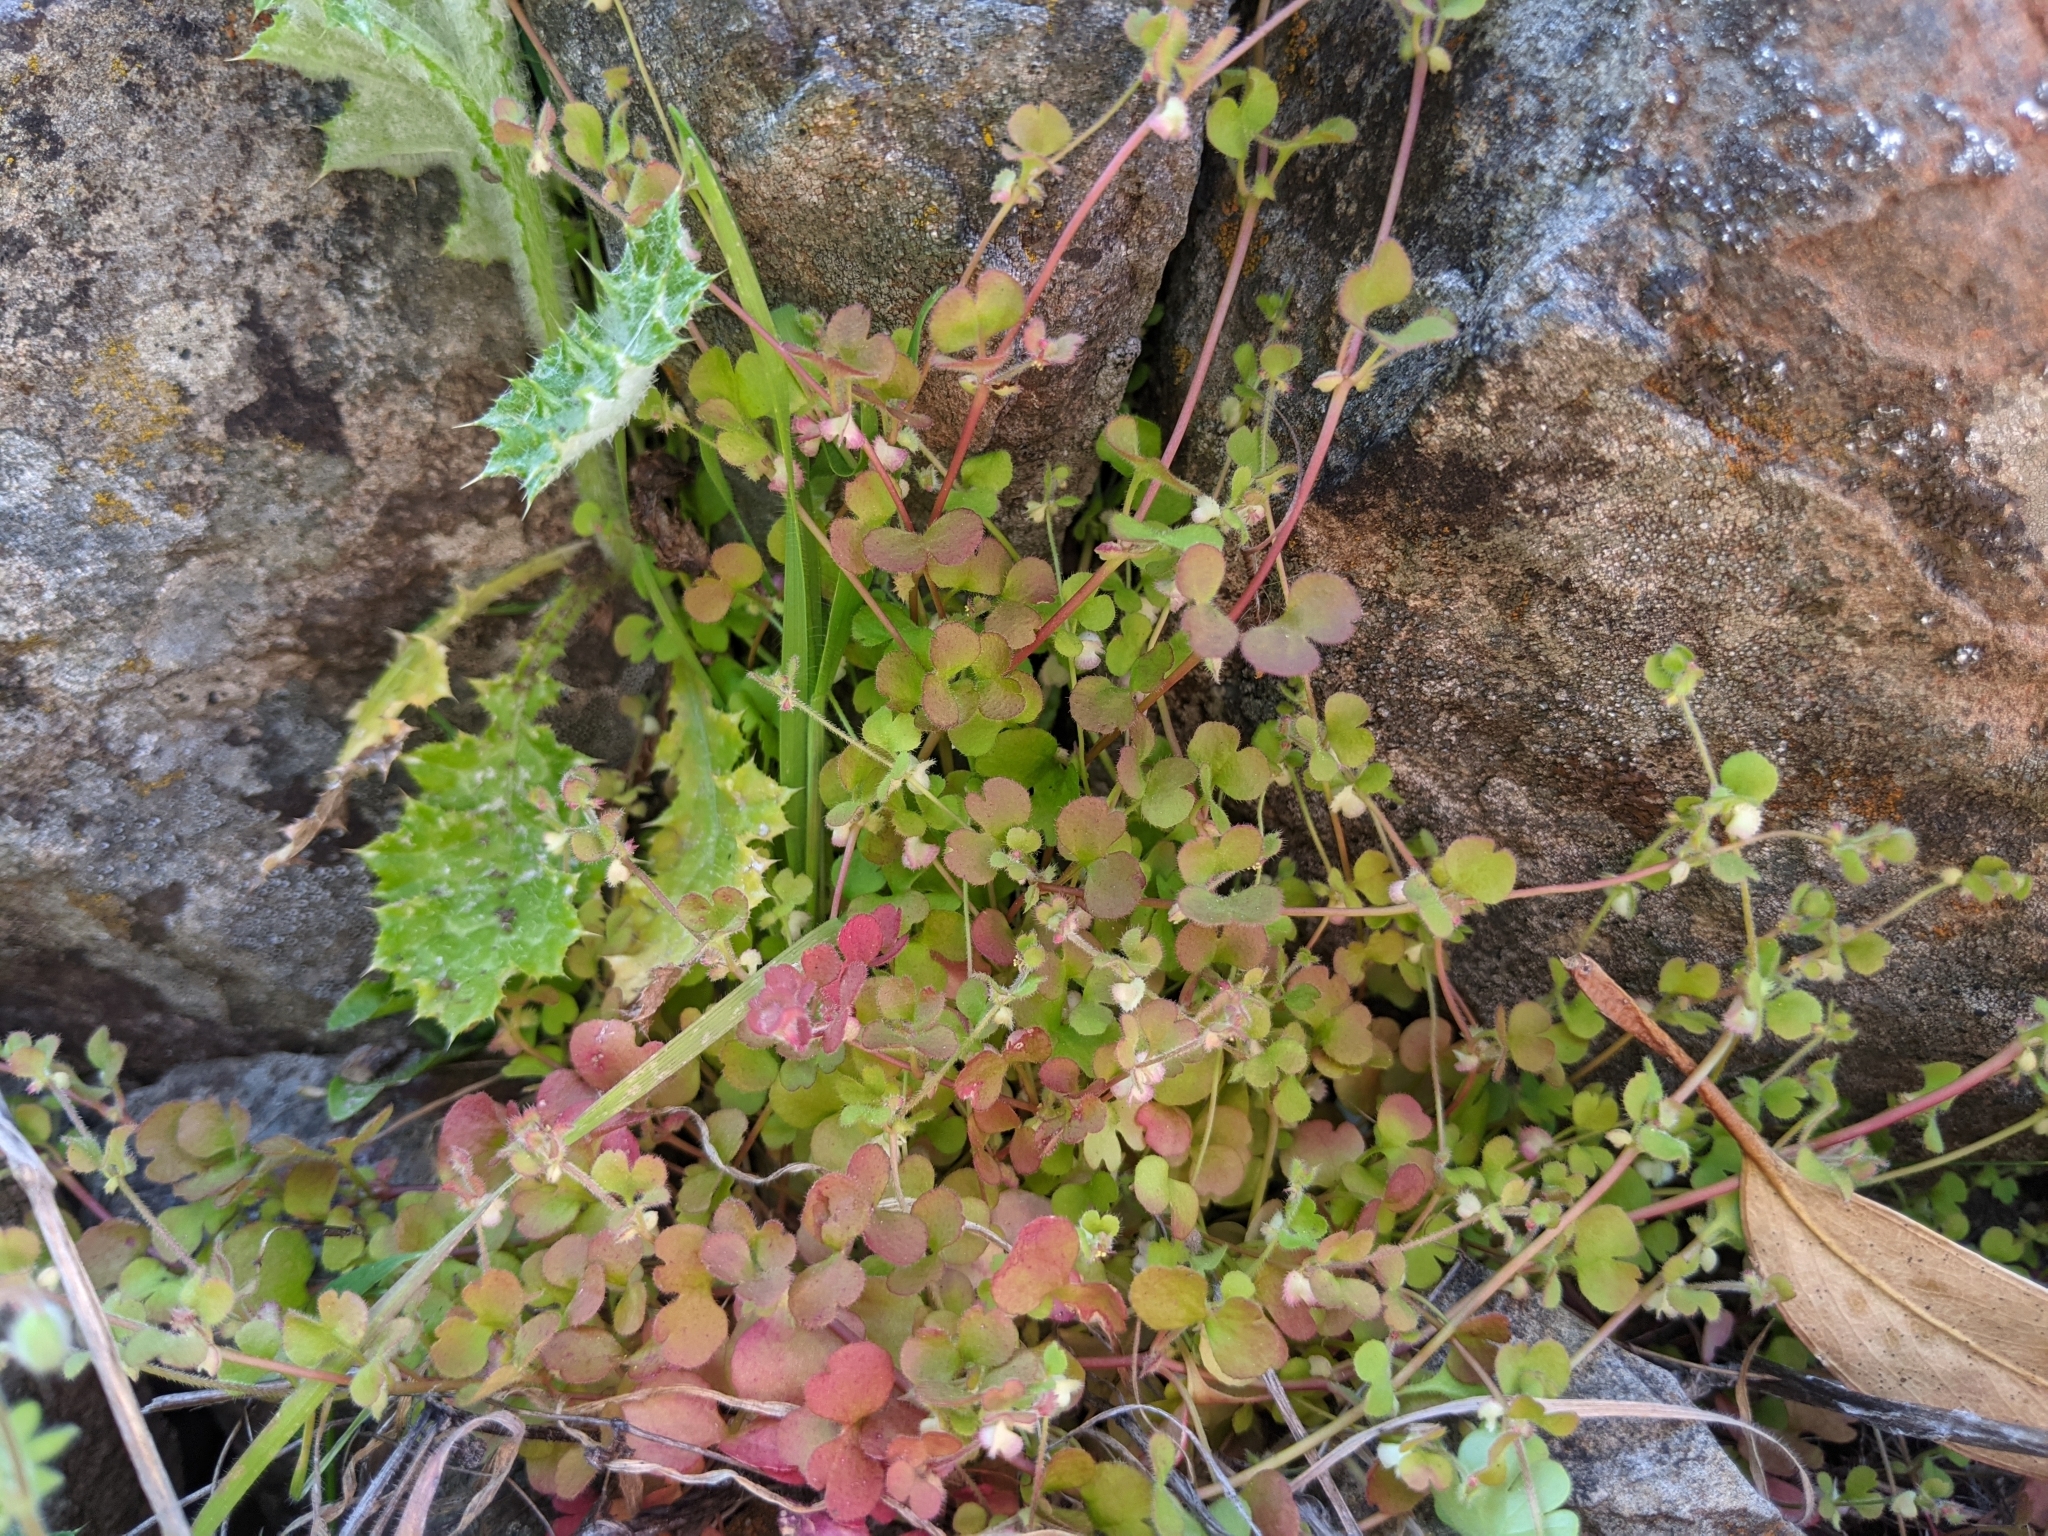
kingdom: Plantae
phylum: Tracheophyta
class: Magnoliopsida
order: Caryophyllales
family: Polygonaceae
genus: Pterostegia
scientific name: Pterostegia drymarioides
